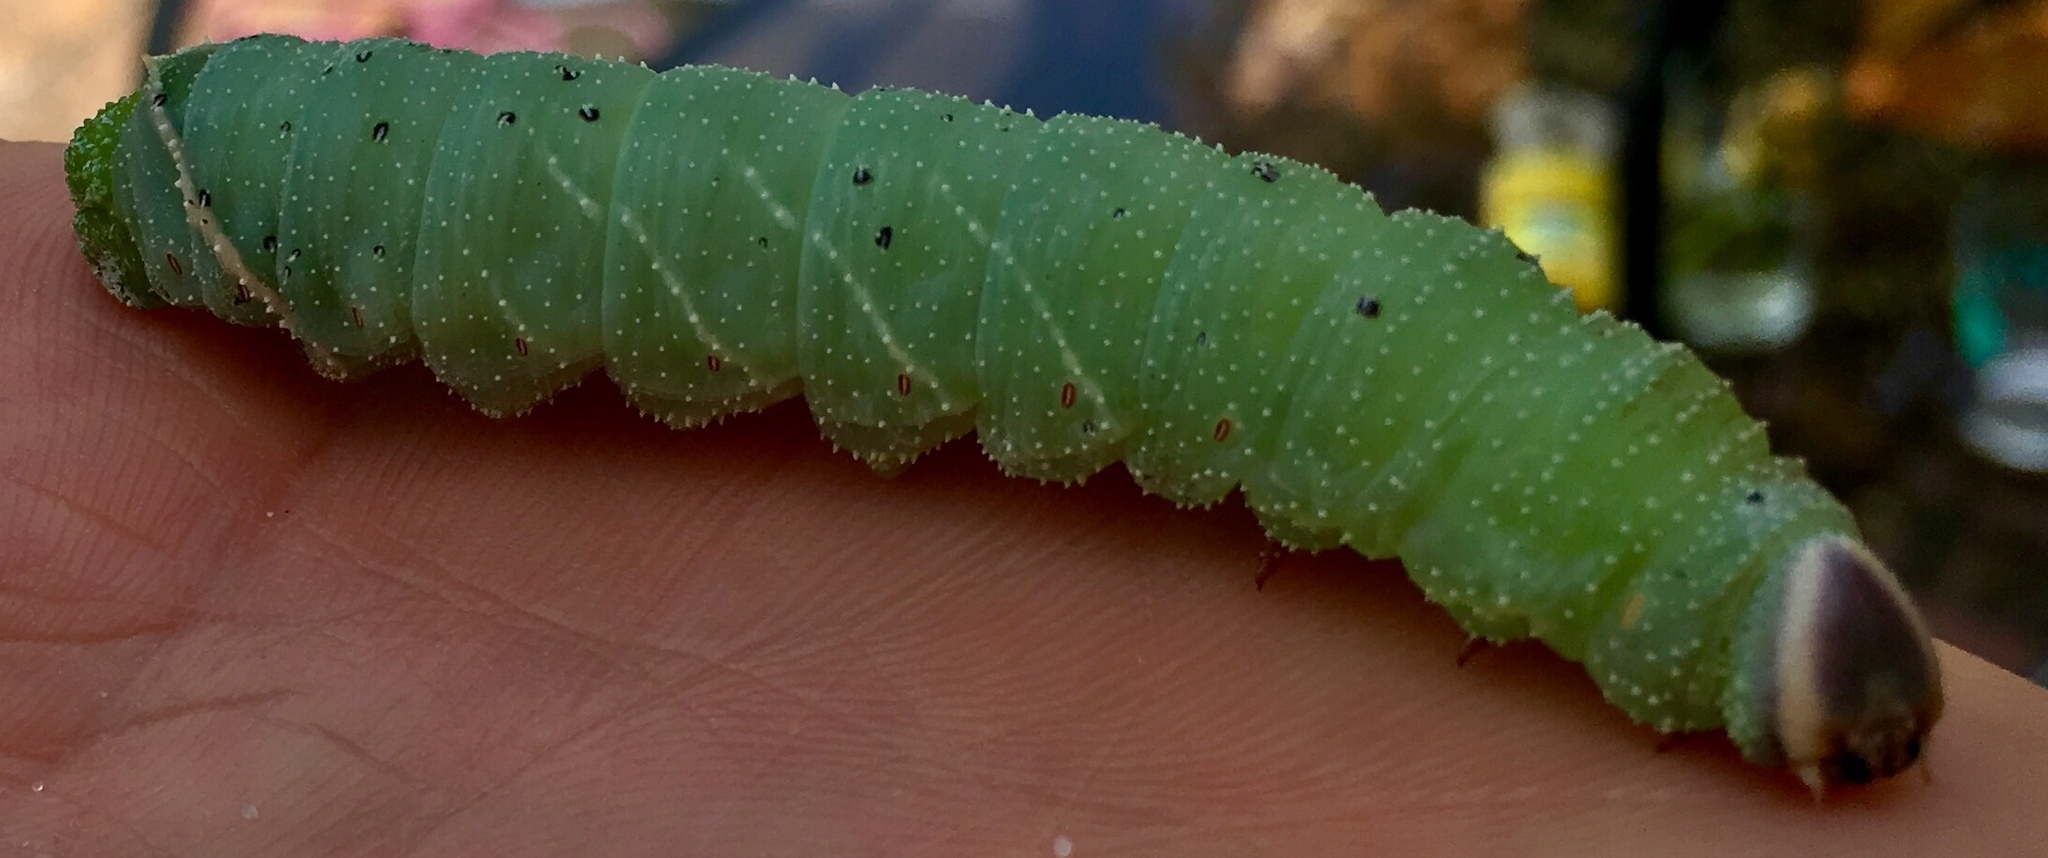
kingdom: Animalia
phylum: Arthropoda
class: Insecta
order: Lepidoptera
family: Sphingidae
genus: Pachysphinx
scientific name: Pachysphinx modesta
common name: Big poplar sphinx
